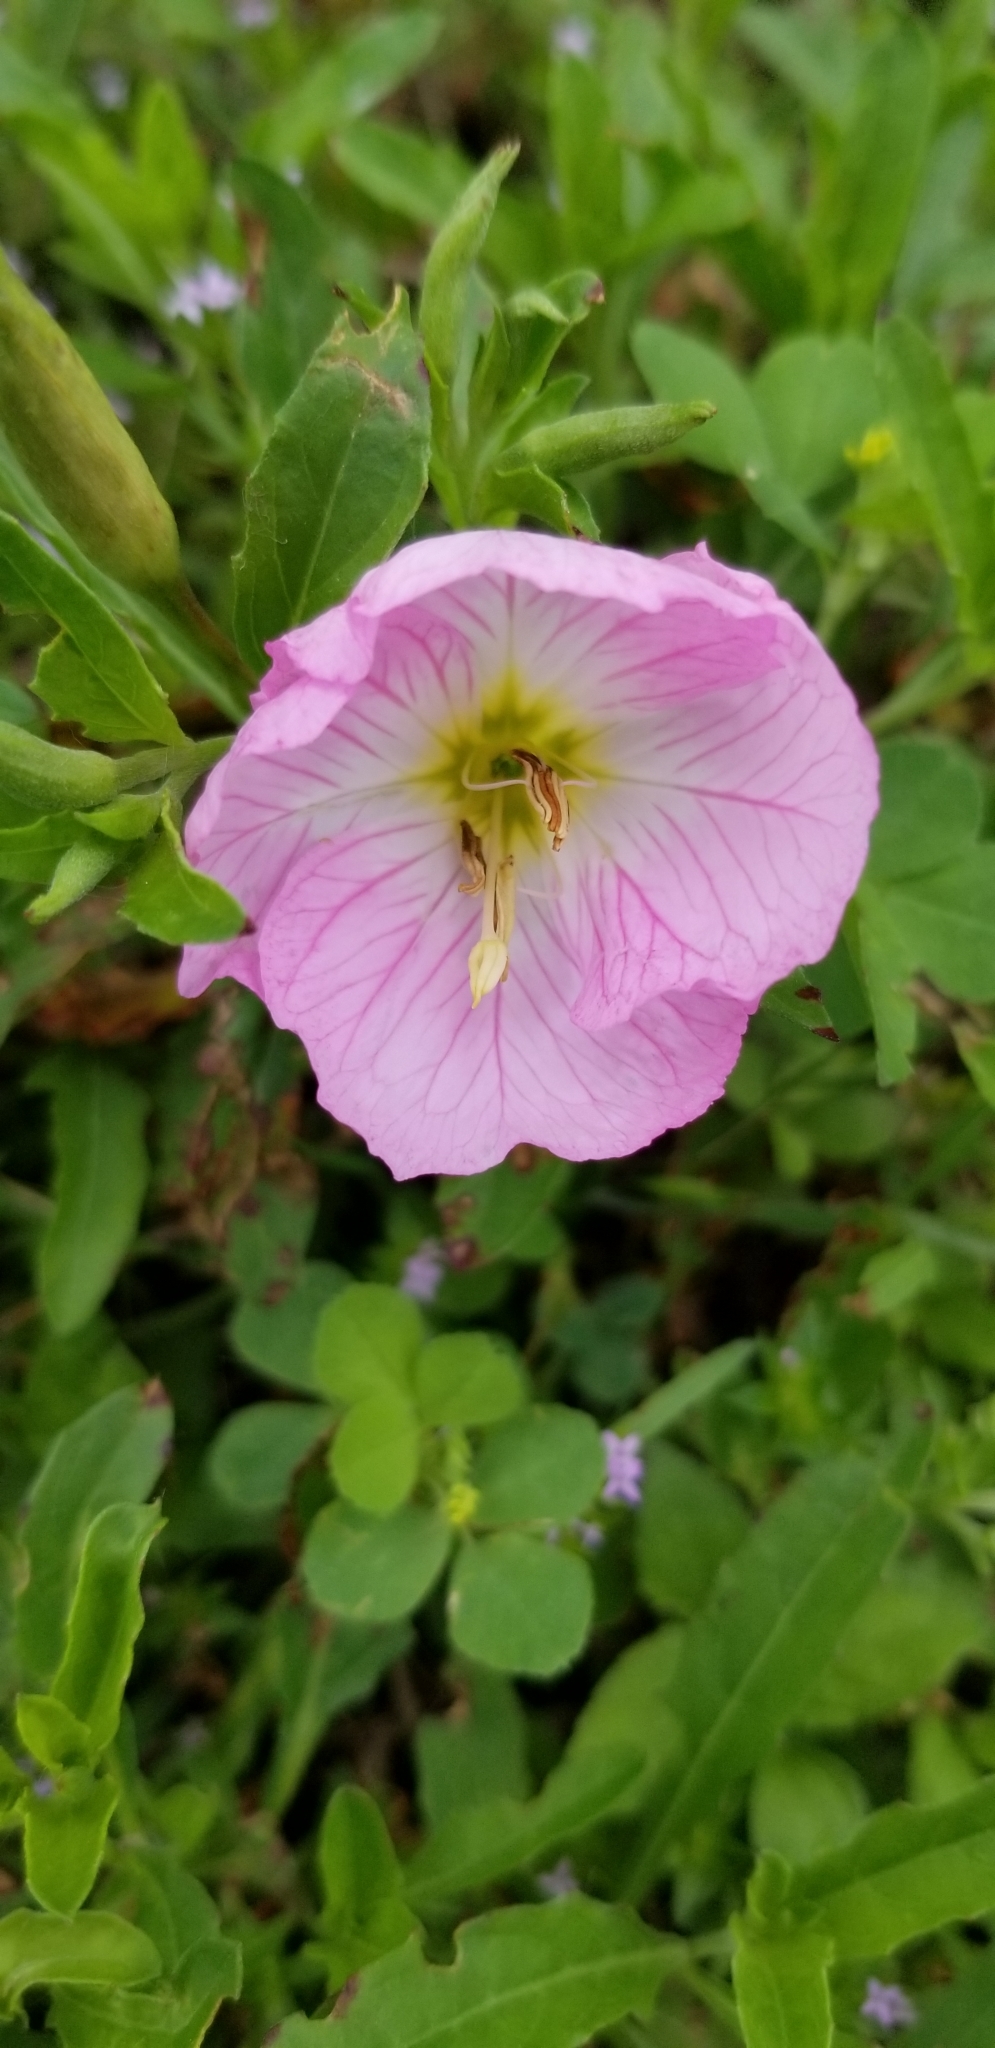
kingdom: Plantae
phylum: Tracheophyta
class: Magnoliopsida
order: Myrtales
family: Onagraceae
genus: Oenothera
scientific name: Oenothera speciosa
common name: White evening-primrose
